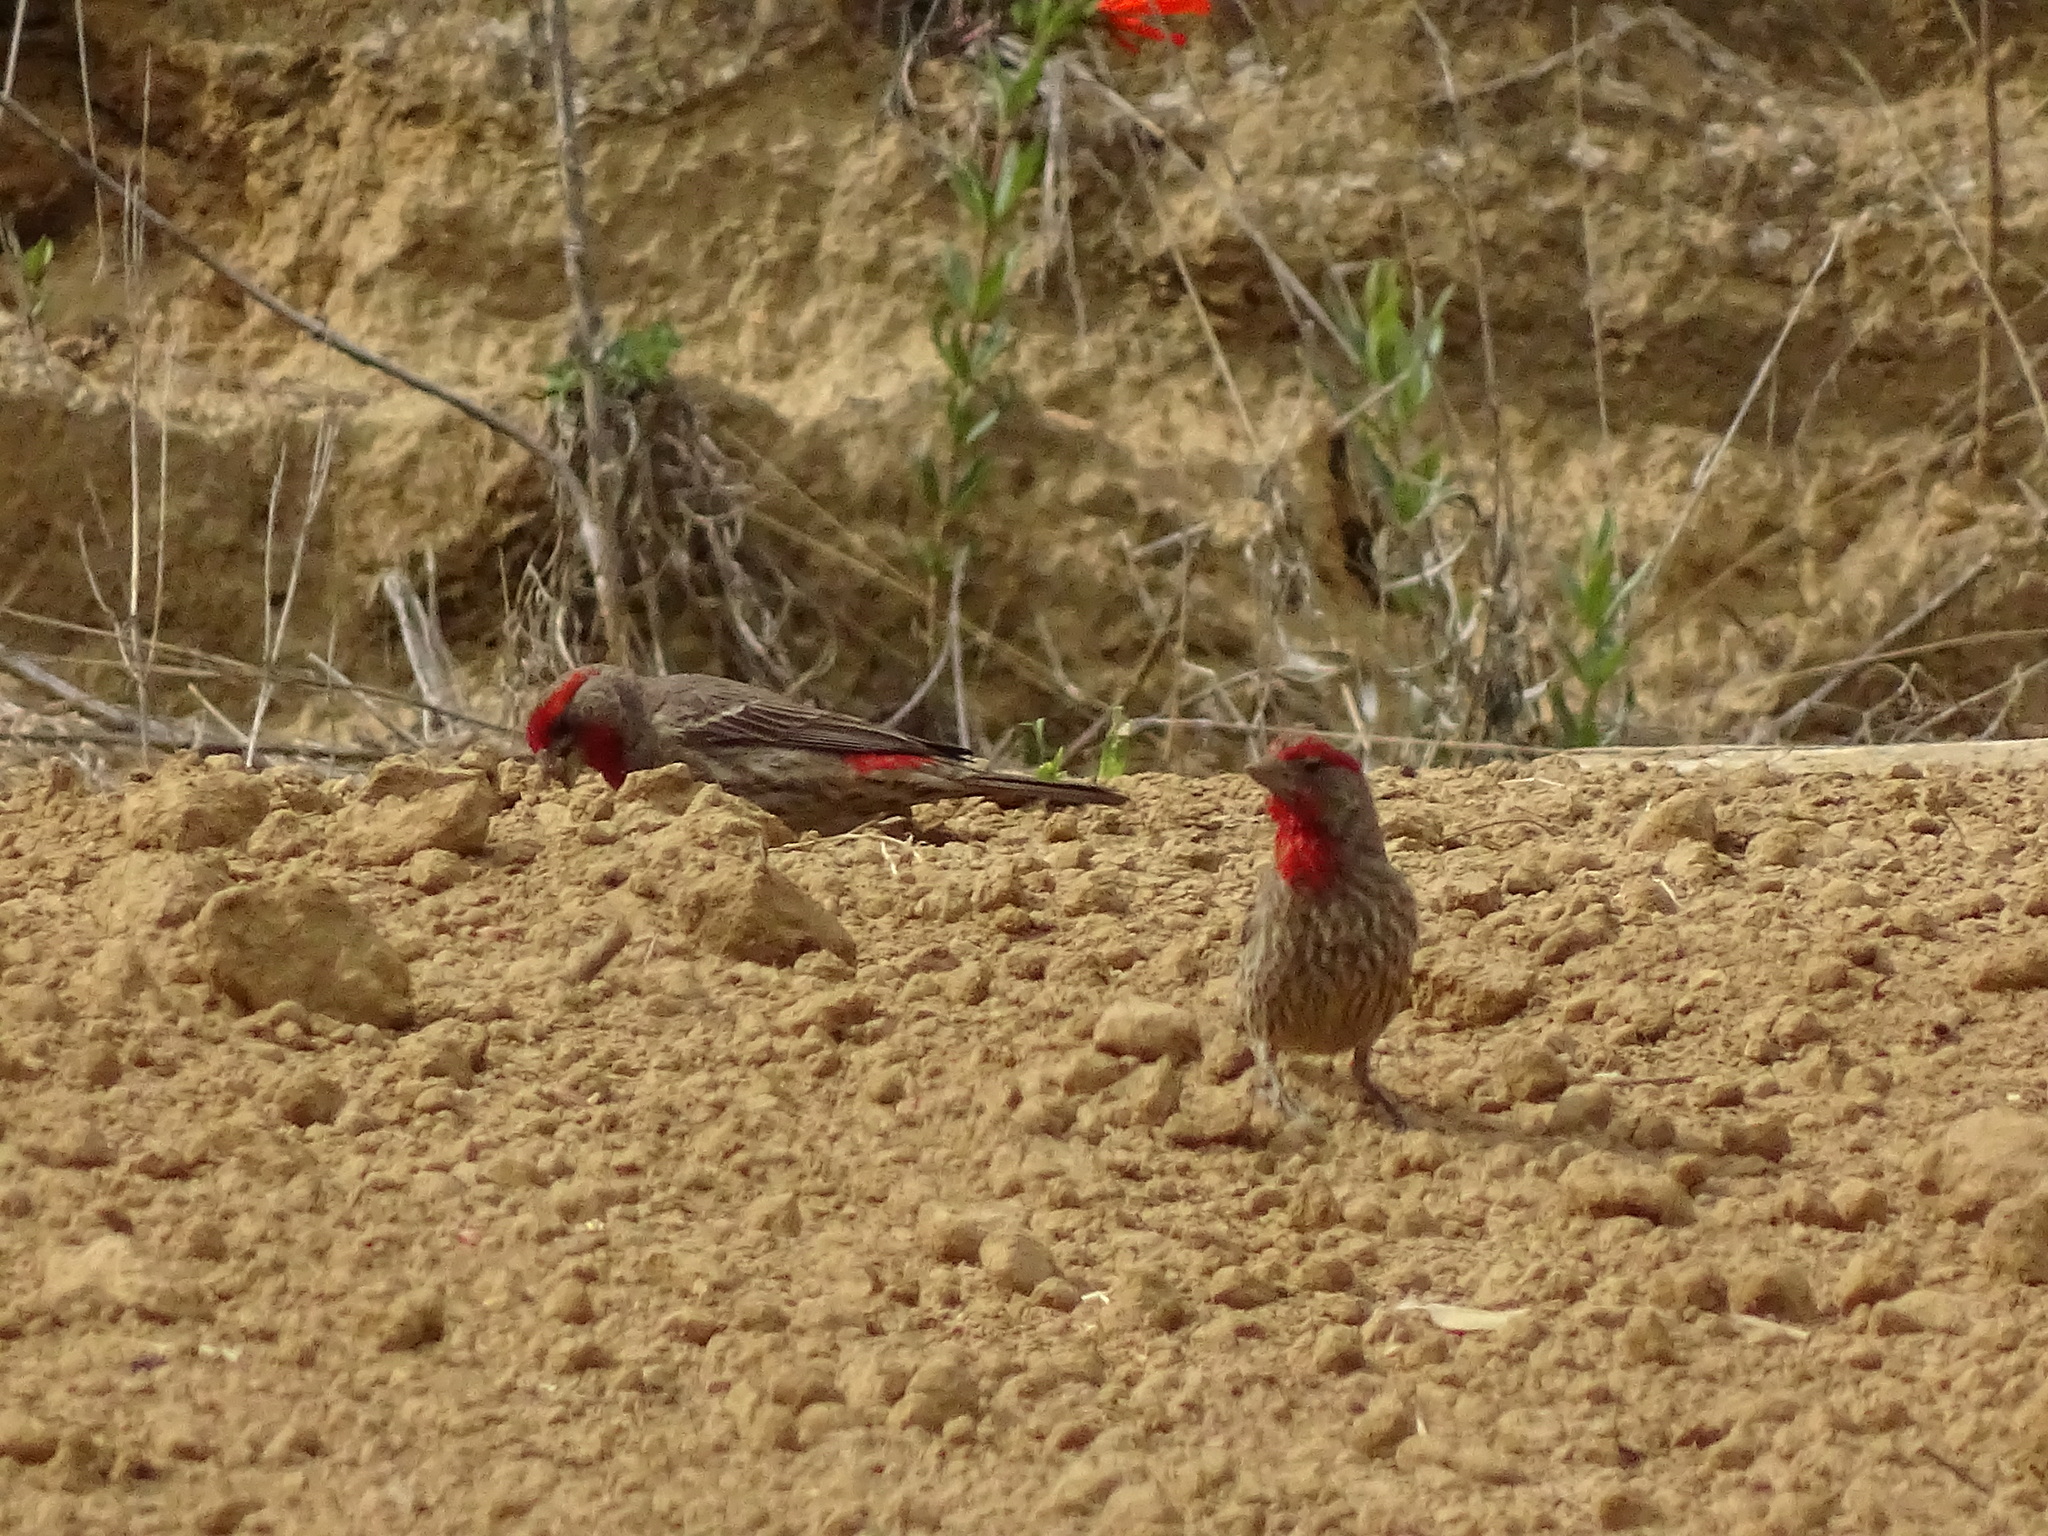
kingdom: Animalia
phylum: Chordata
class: Aves
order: Passeriformes
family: Fringillidae
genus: Haemorhous
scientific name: Haemorhous mexicanus
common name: House finch
